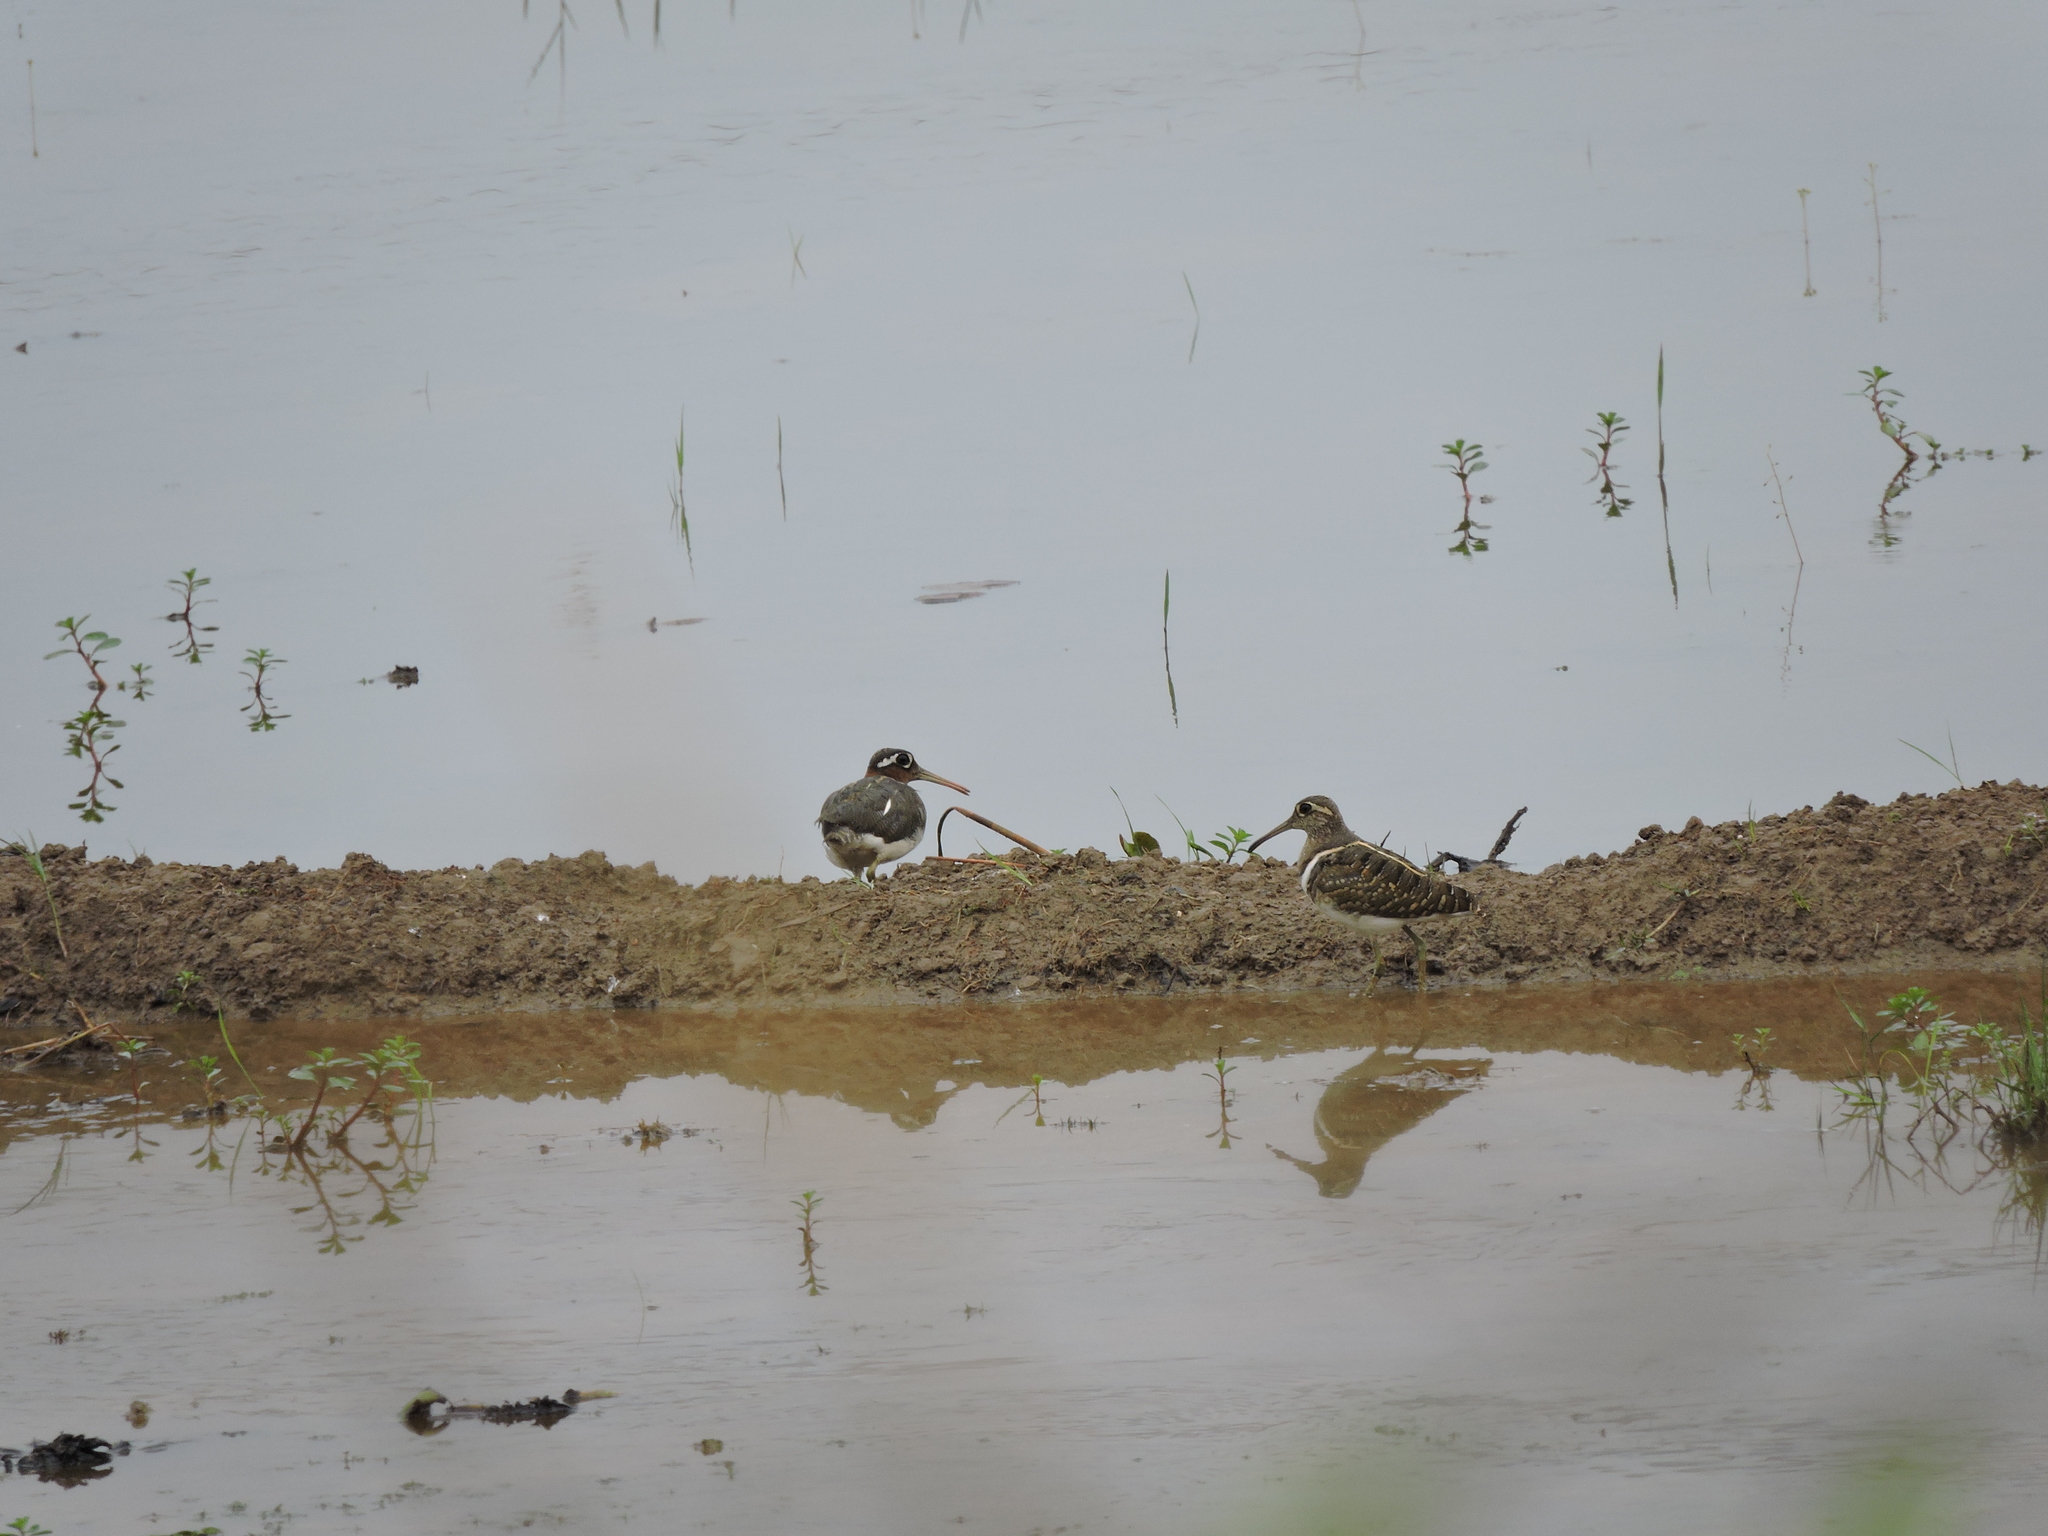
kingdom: Animalia
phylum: Chordata
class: Aves
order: Charadriiformes
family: Rostratulidae
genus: Rostratula
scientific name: Rostratula benghalensis
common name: Greater painted-snipe
